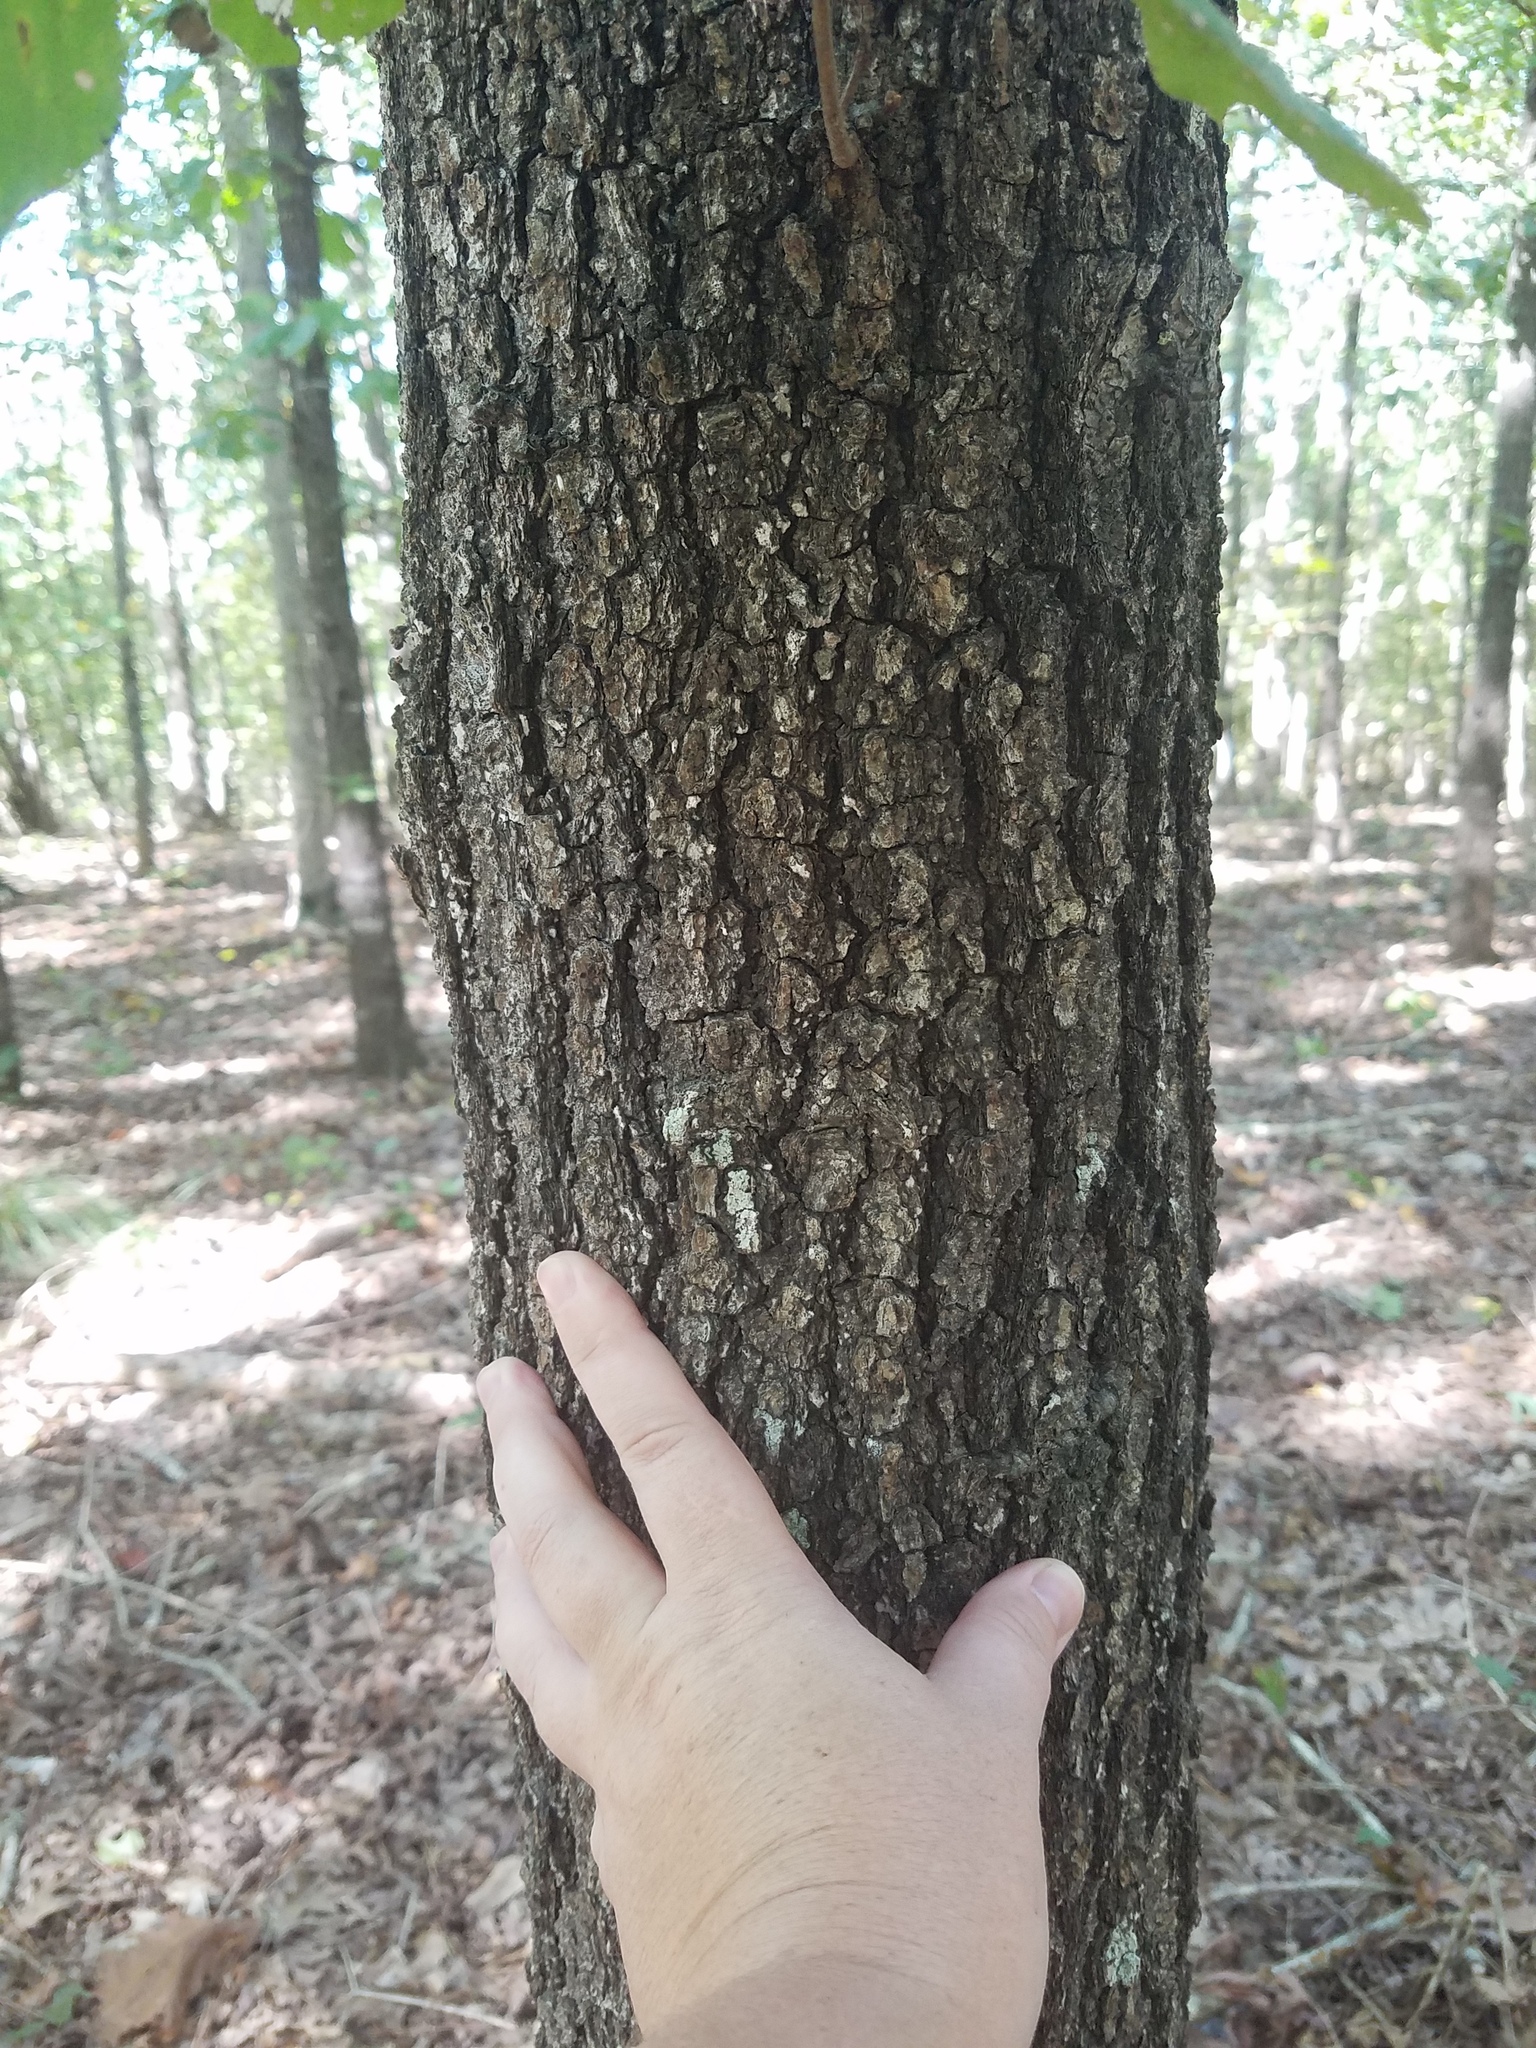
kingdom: Plantae
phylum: Tracheophyta
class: Magnoliopsida
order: Fagales
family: Fagaceae
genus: Quercus
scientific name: Quercus velutina
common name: Black oak
